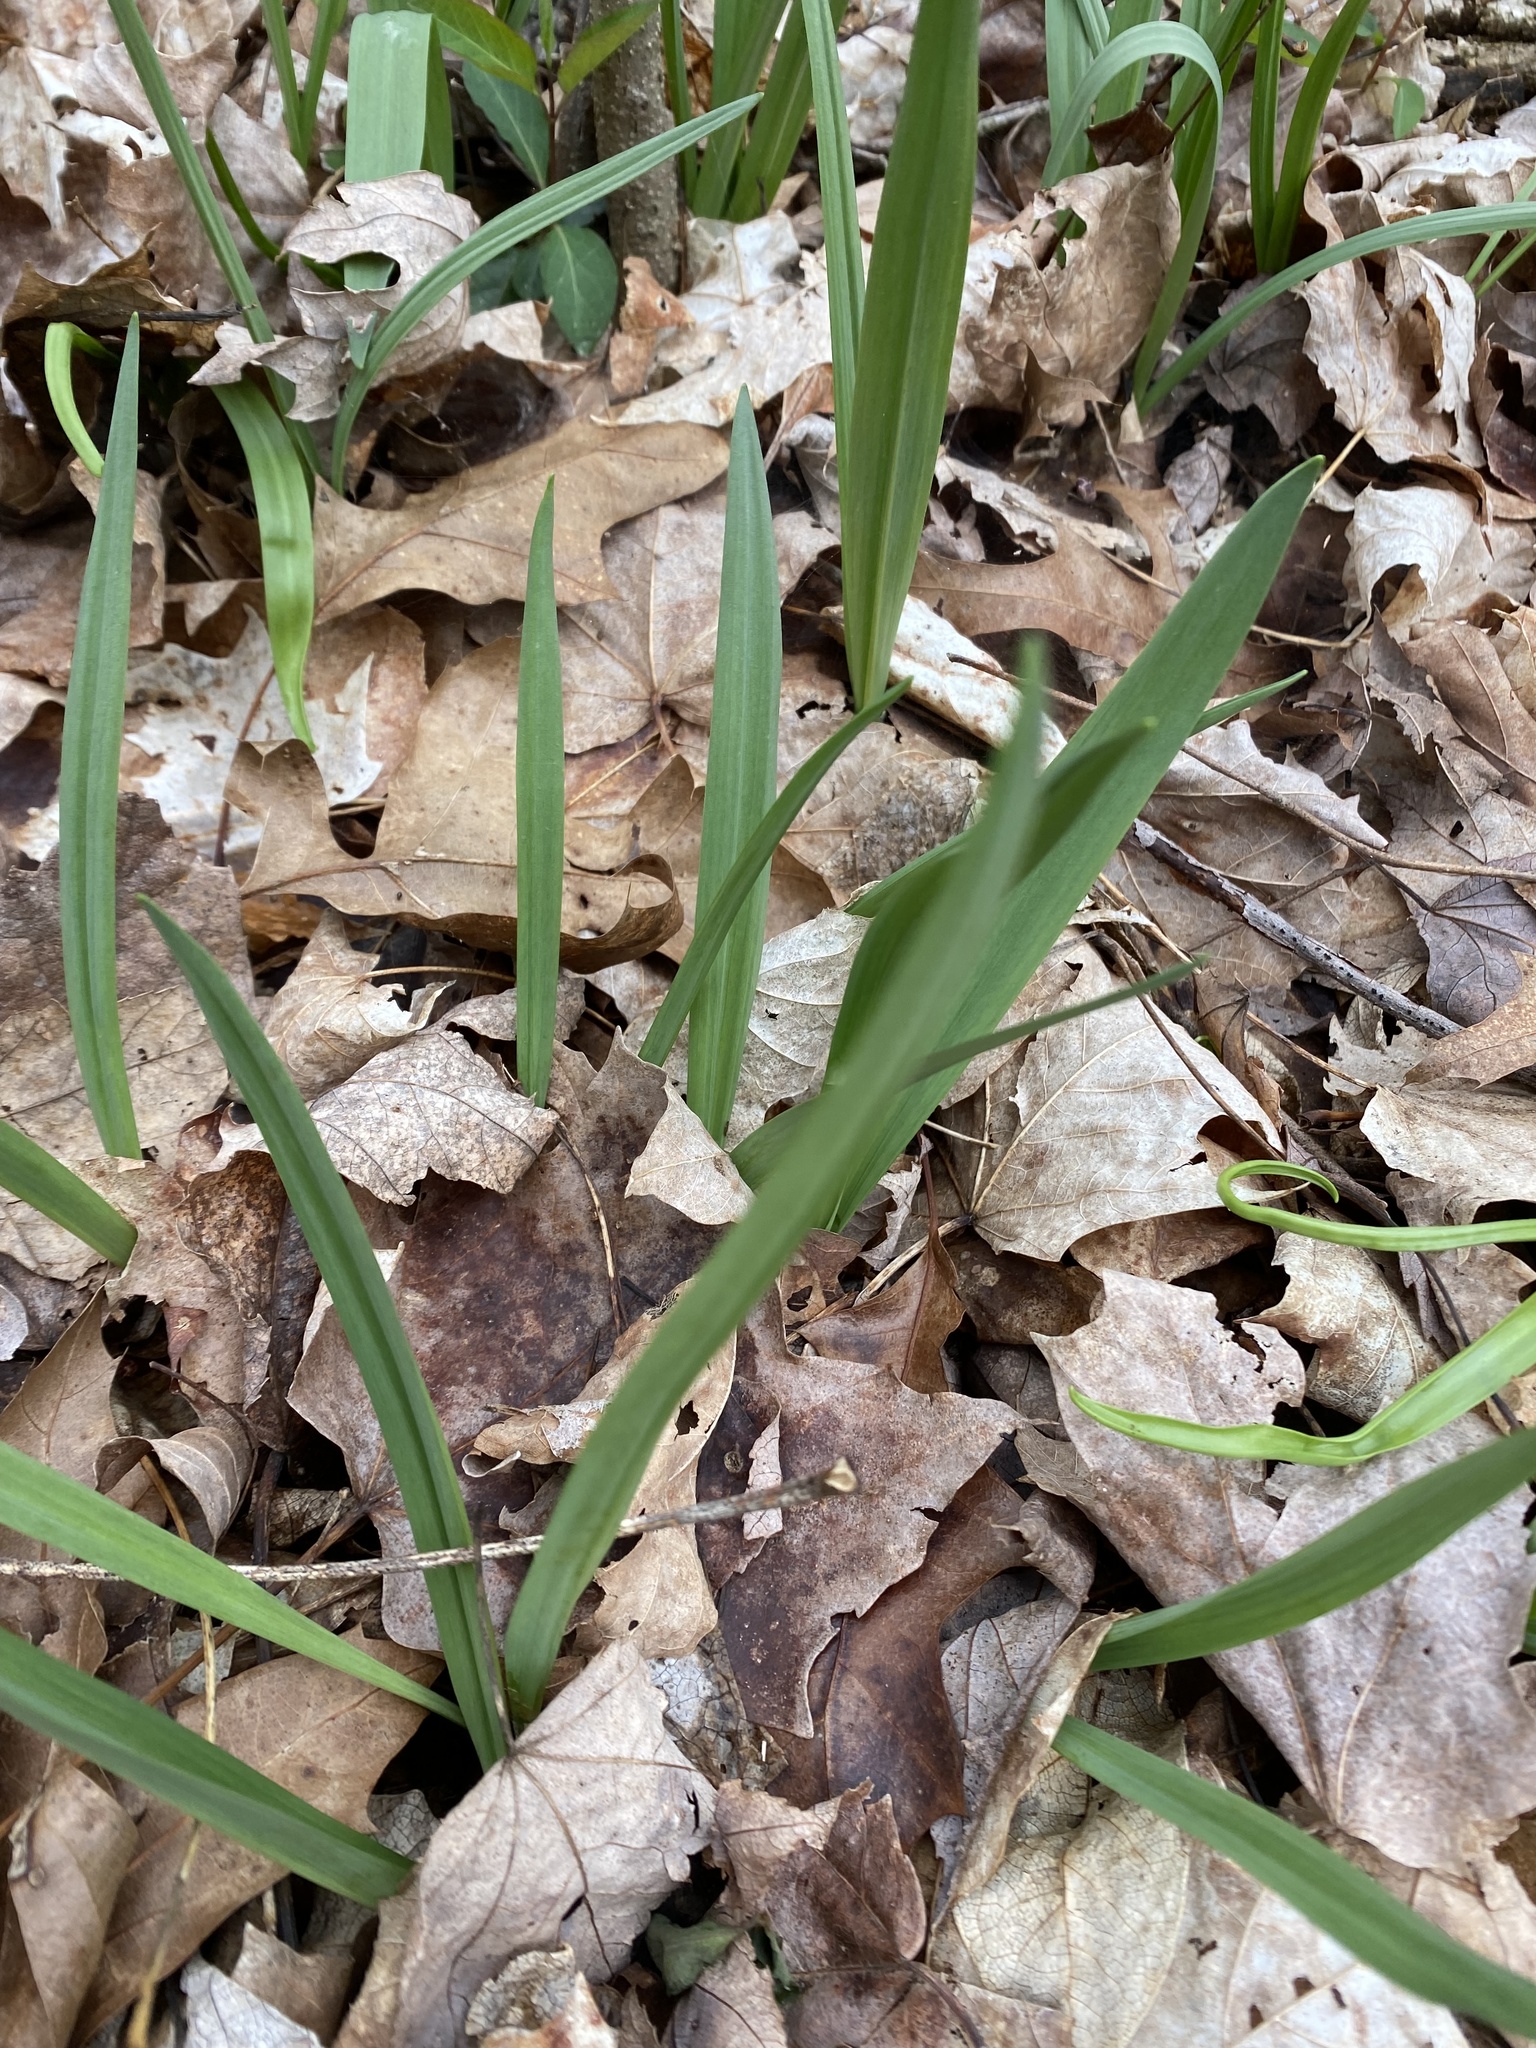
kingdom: Plantae
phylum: Tracheophyta
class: Liliopsida
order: Asparagales
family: Amaryllidaceae
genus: Allium
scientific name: Allium tricoccum
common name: Ramp
